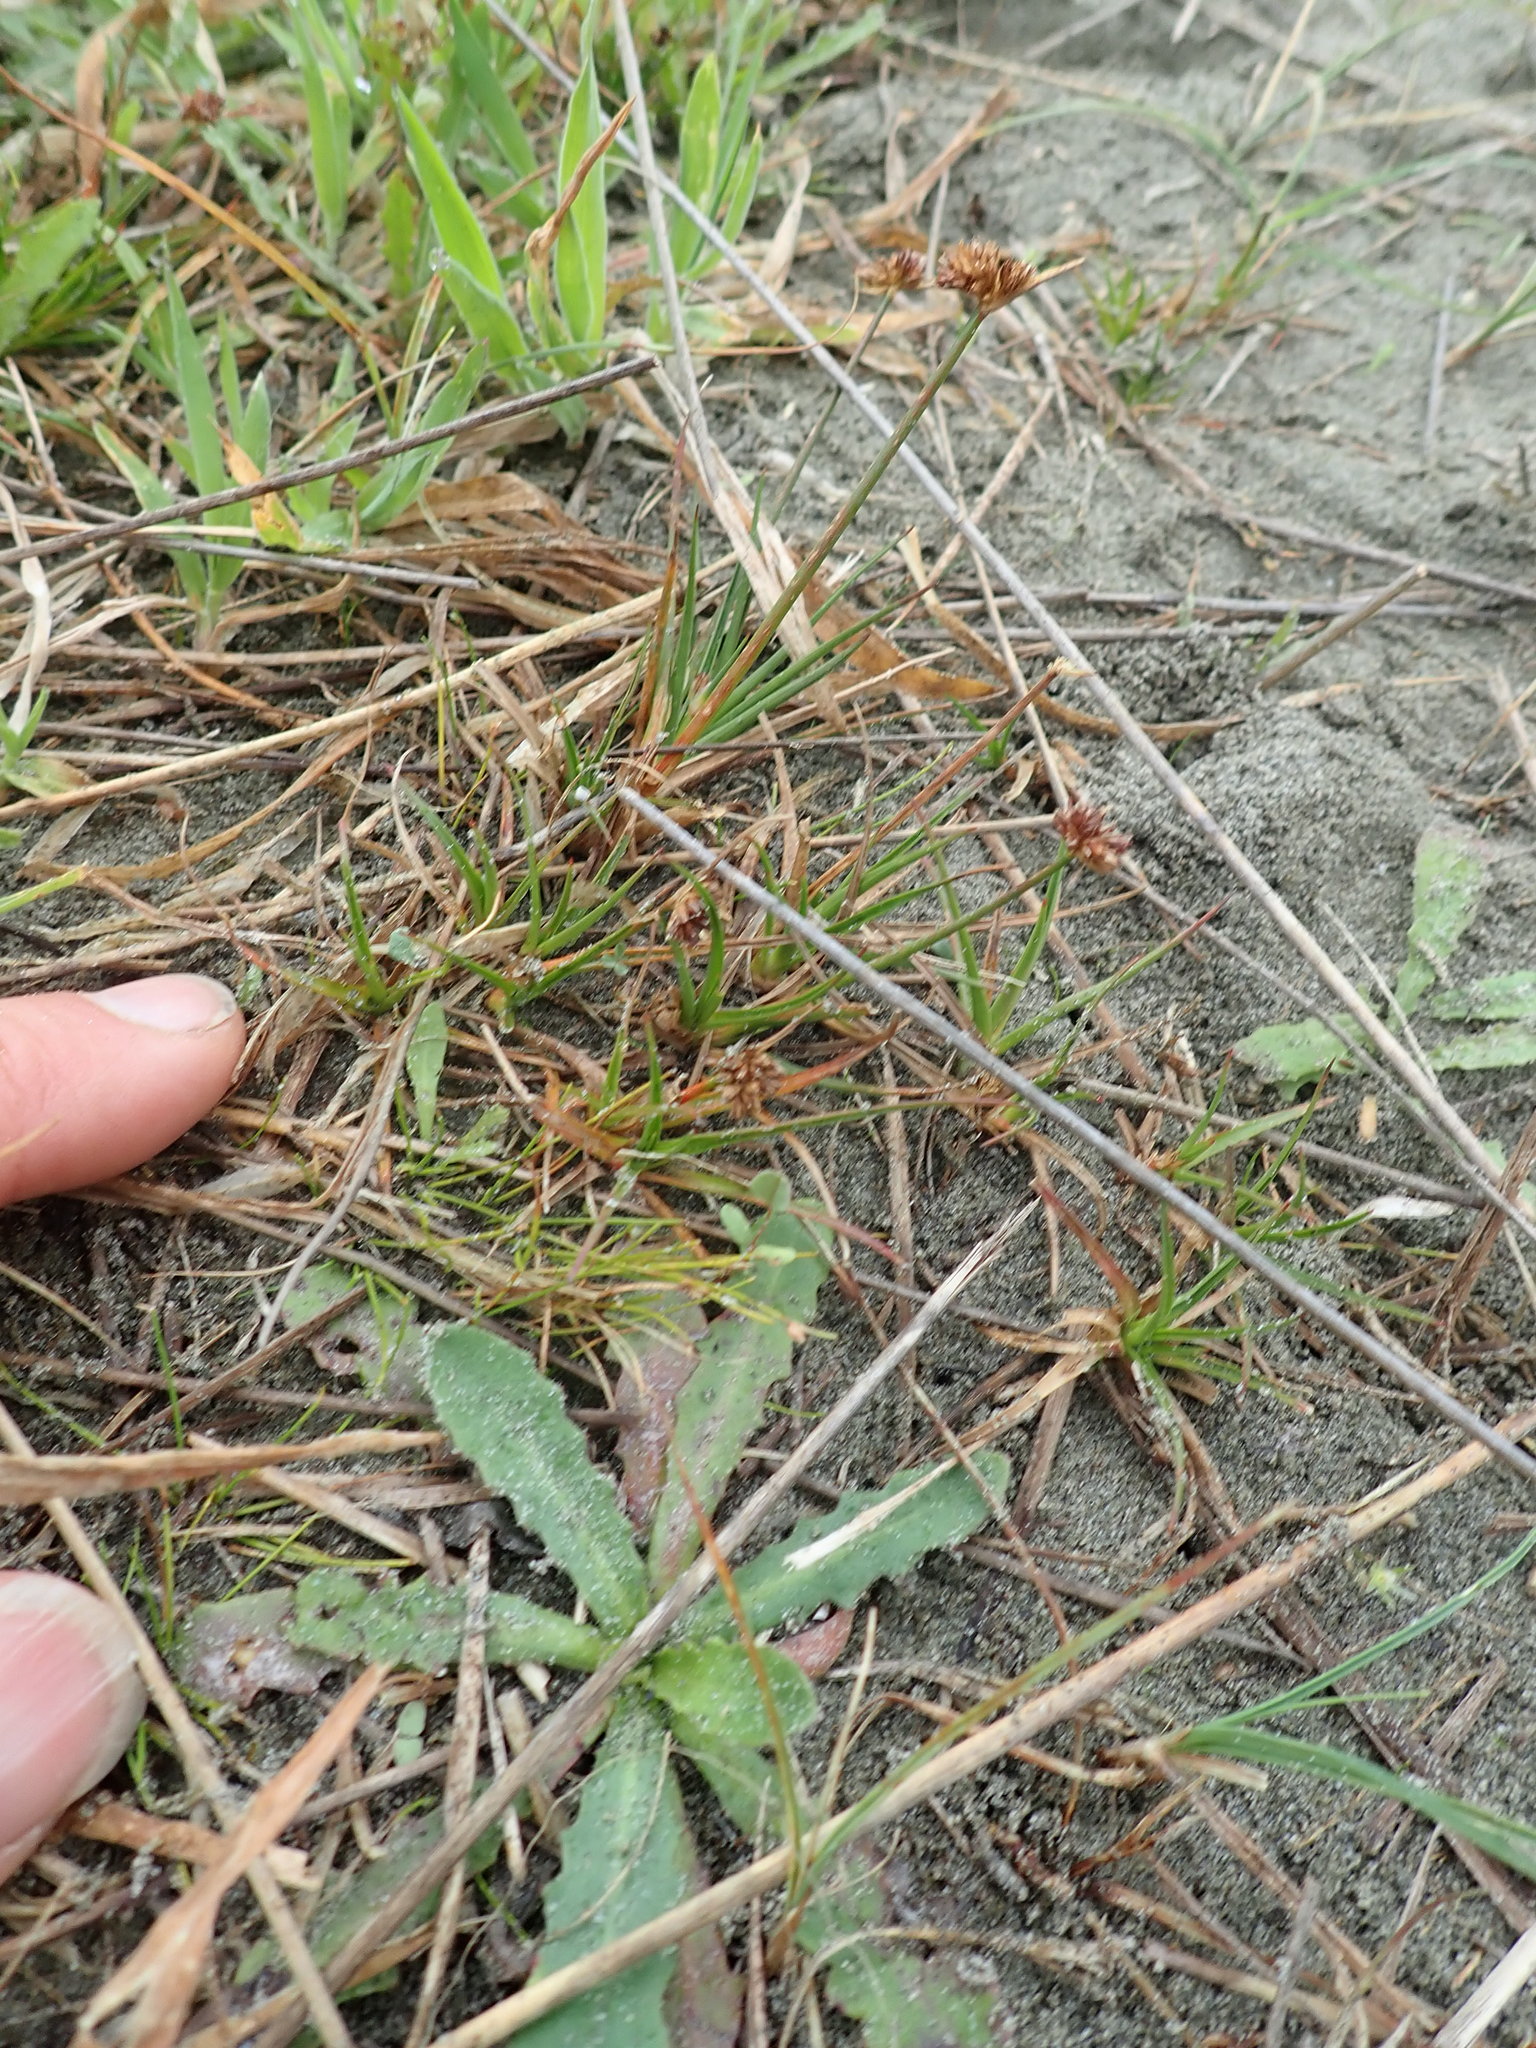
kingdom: Plantae
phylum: Tracheophyta
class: Liliopsida
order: Poales
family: Juncaceae
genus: Juncus
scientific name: Juncus caespiticius
